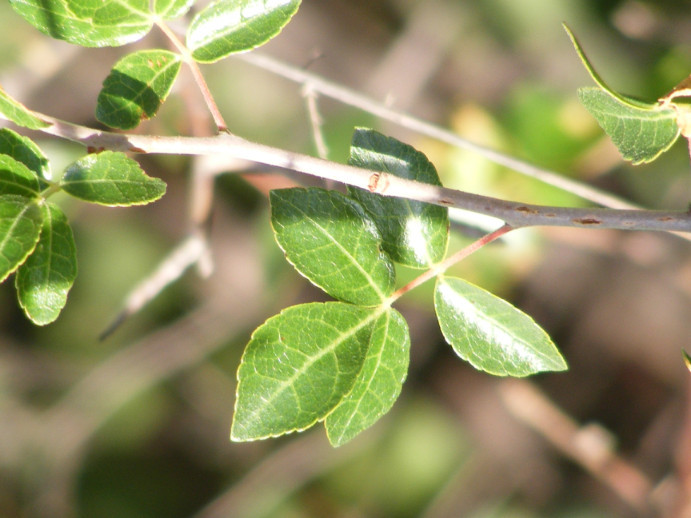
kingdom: Plantae
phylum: Tracheophyta
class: Magnoliopsida
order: Sapindales
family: Burseraceae
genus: Commiphora
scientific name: Commiphora angolensis
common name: Poison-grub
